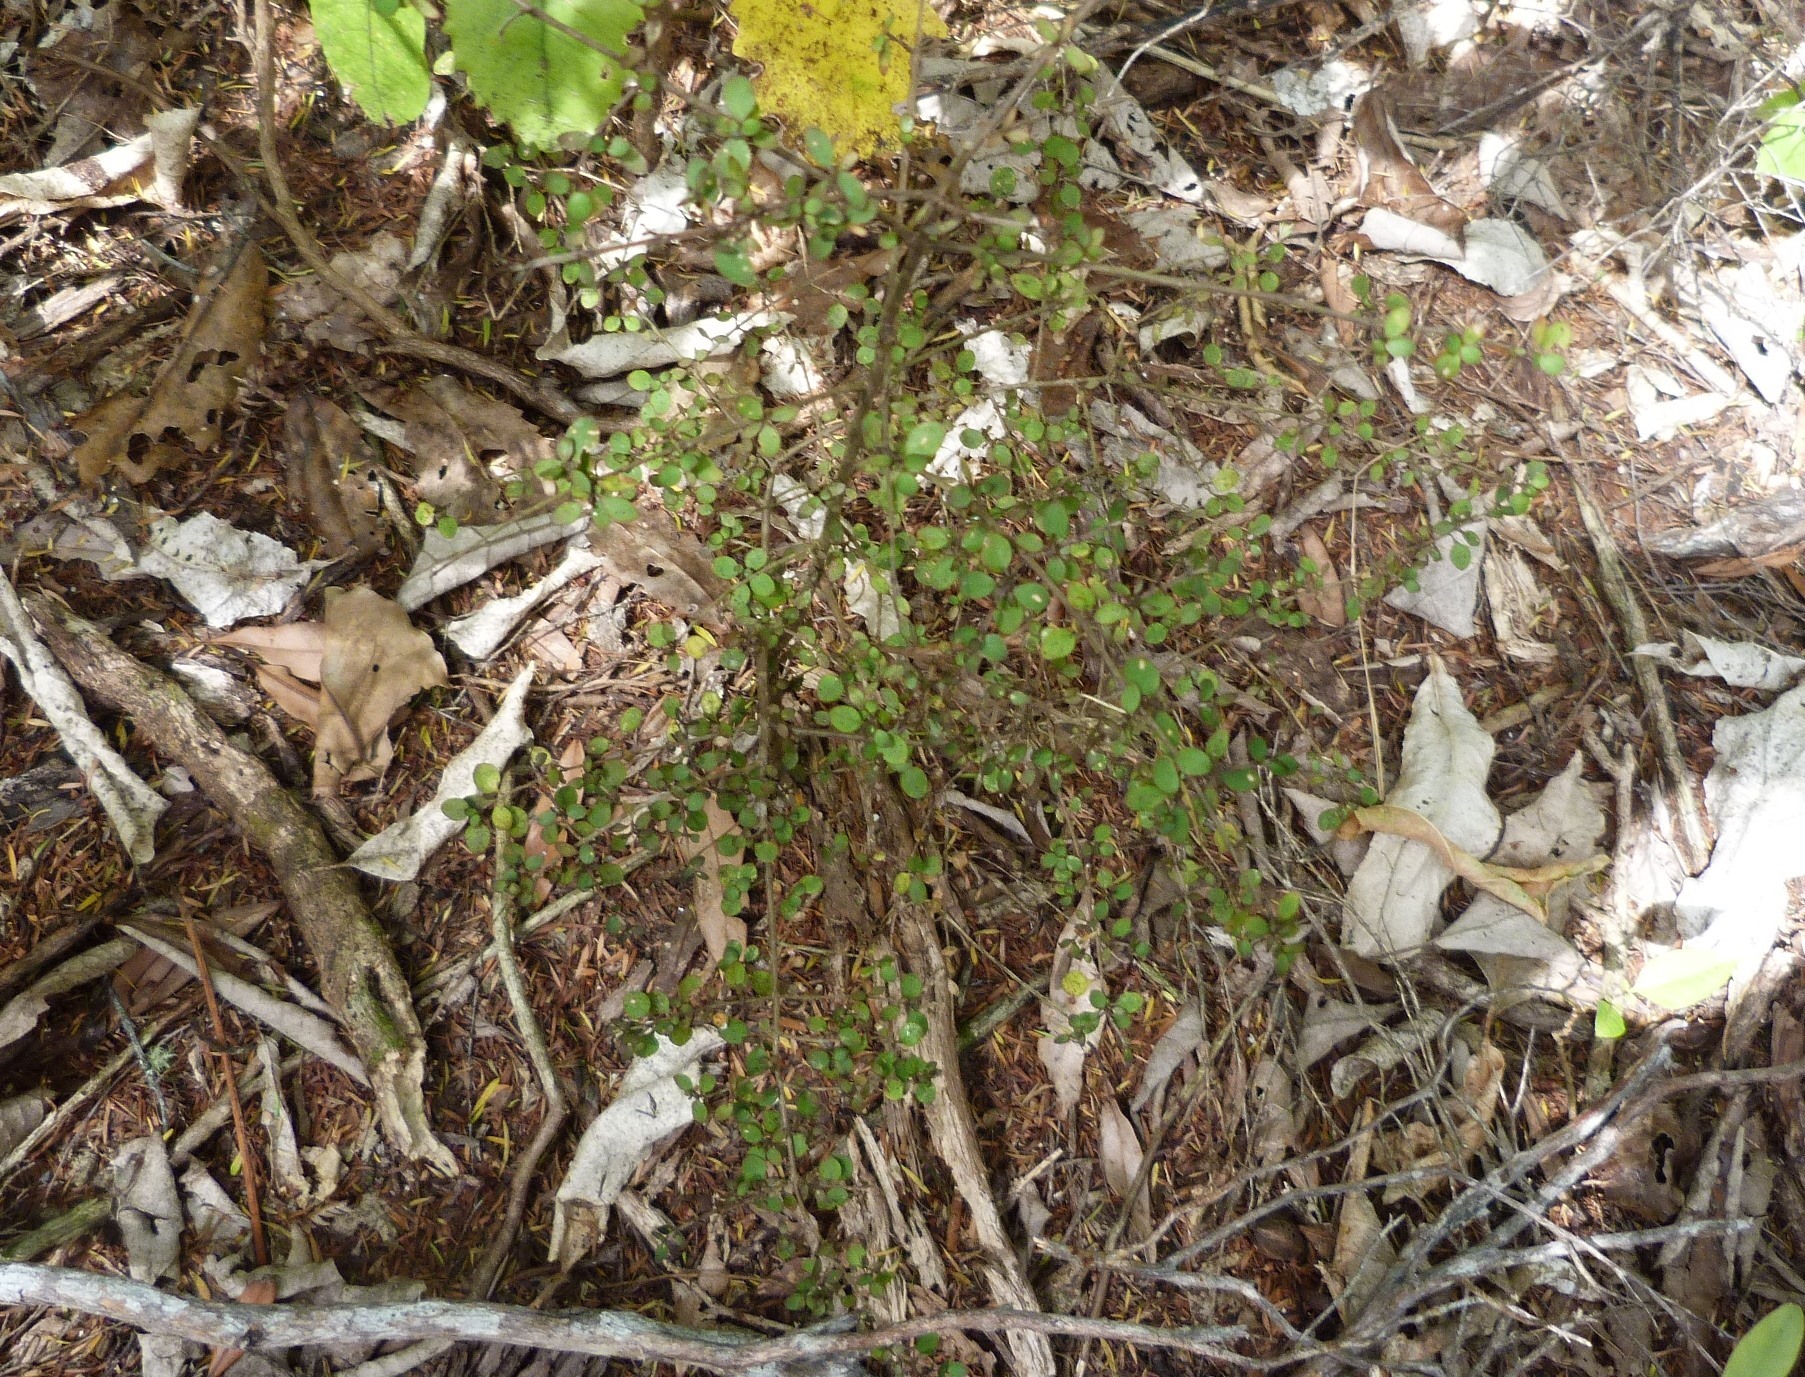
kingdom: Plantae
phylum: Tracheophyta
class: Magnoliopsida
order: Gentianales
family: Rubiaceae
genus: Coprosma
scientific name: Coprosma rhamnoides
